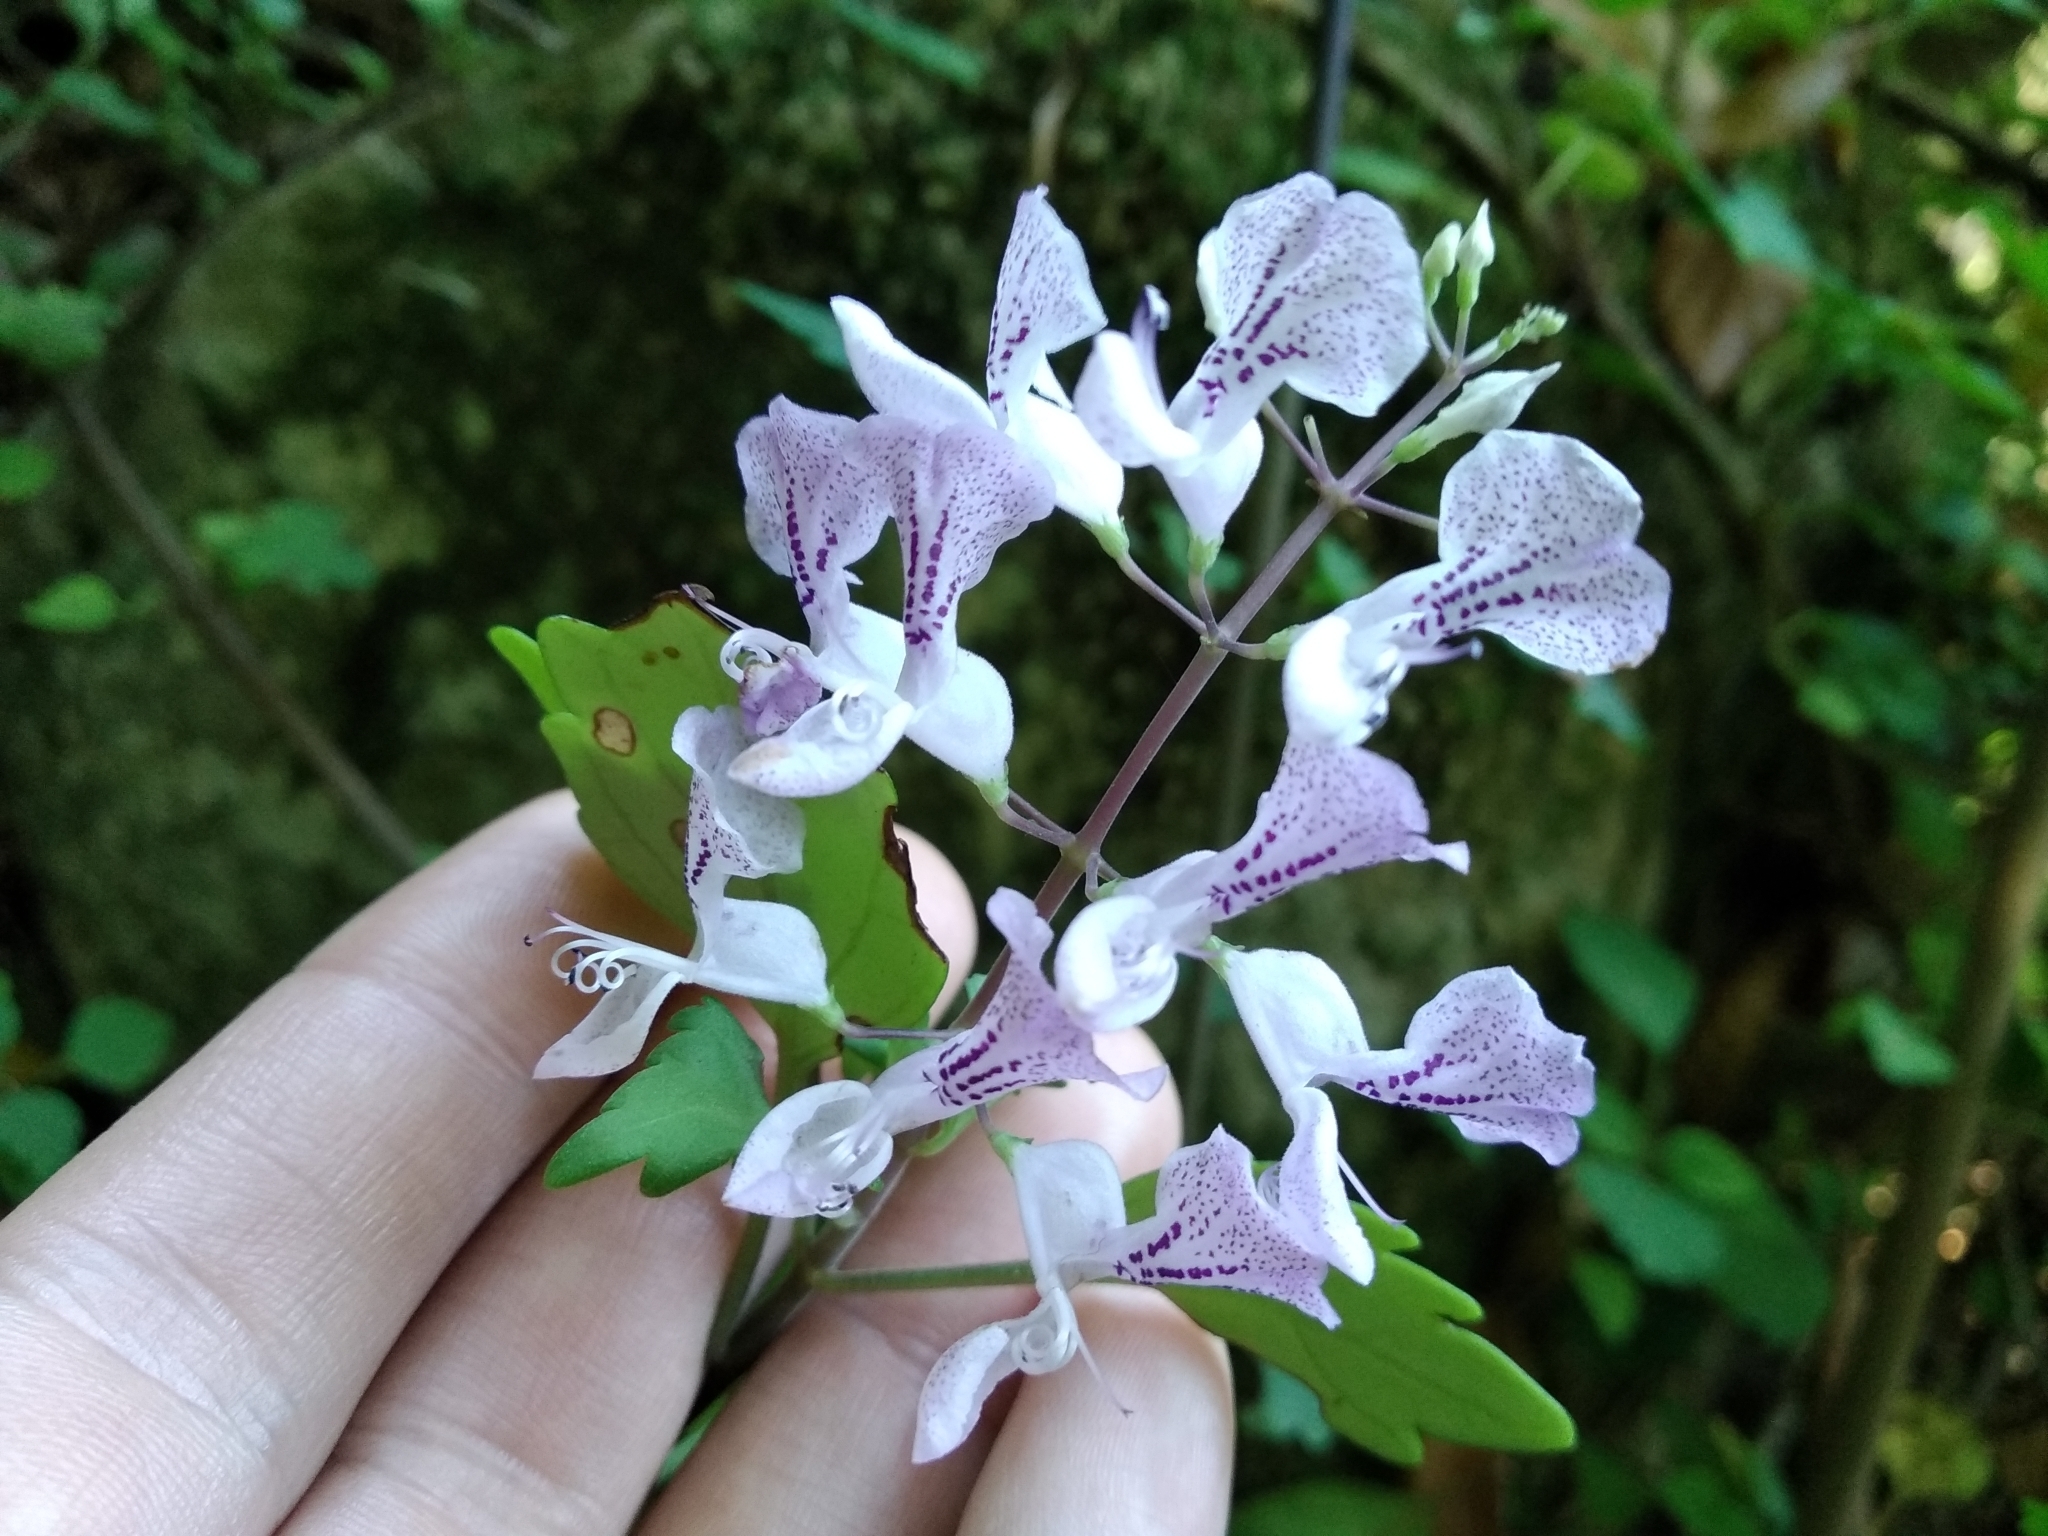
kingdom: Plantae
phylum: Tracheophyta
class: Magnoliopsida
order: Lamiales
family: Lamiaceae
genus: Plectranthus
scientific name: Plectranthus saccatus
